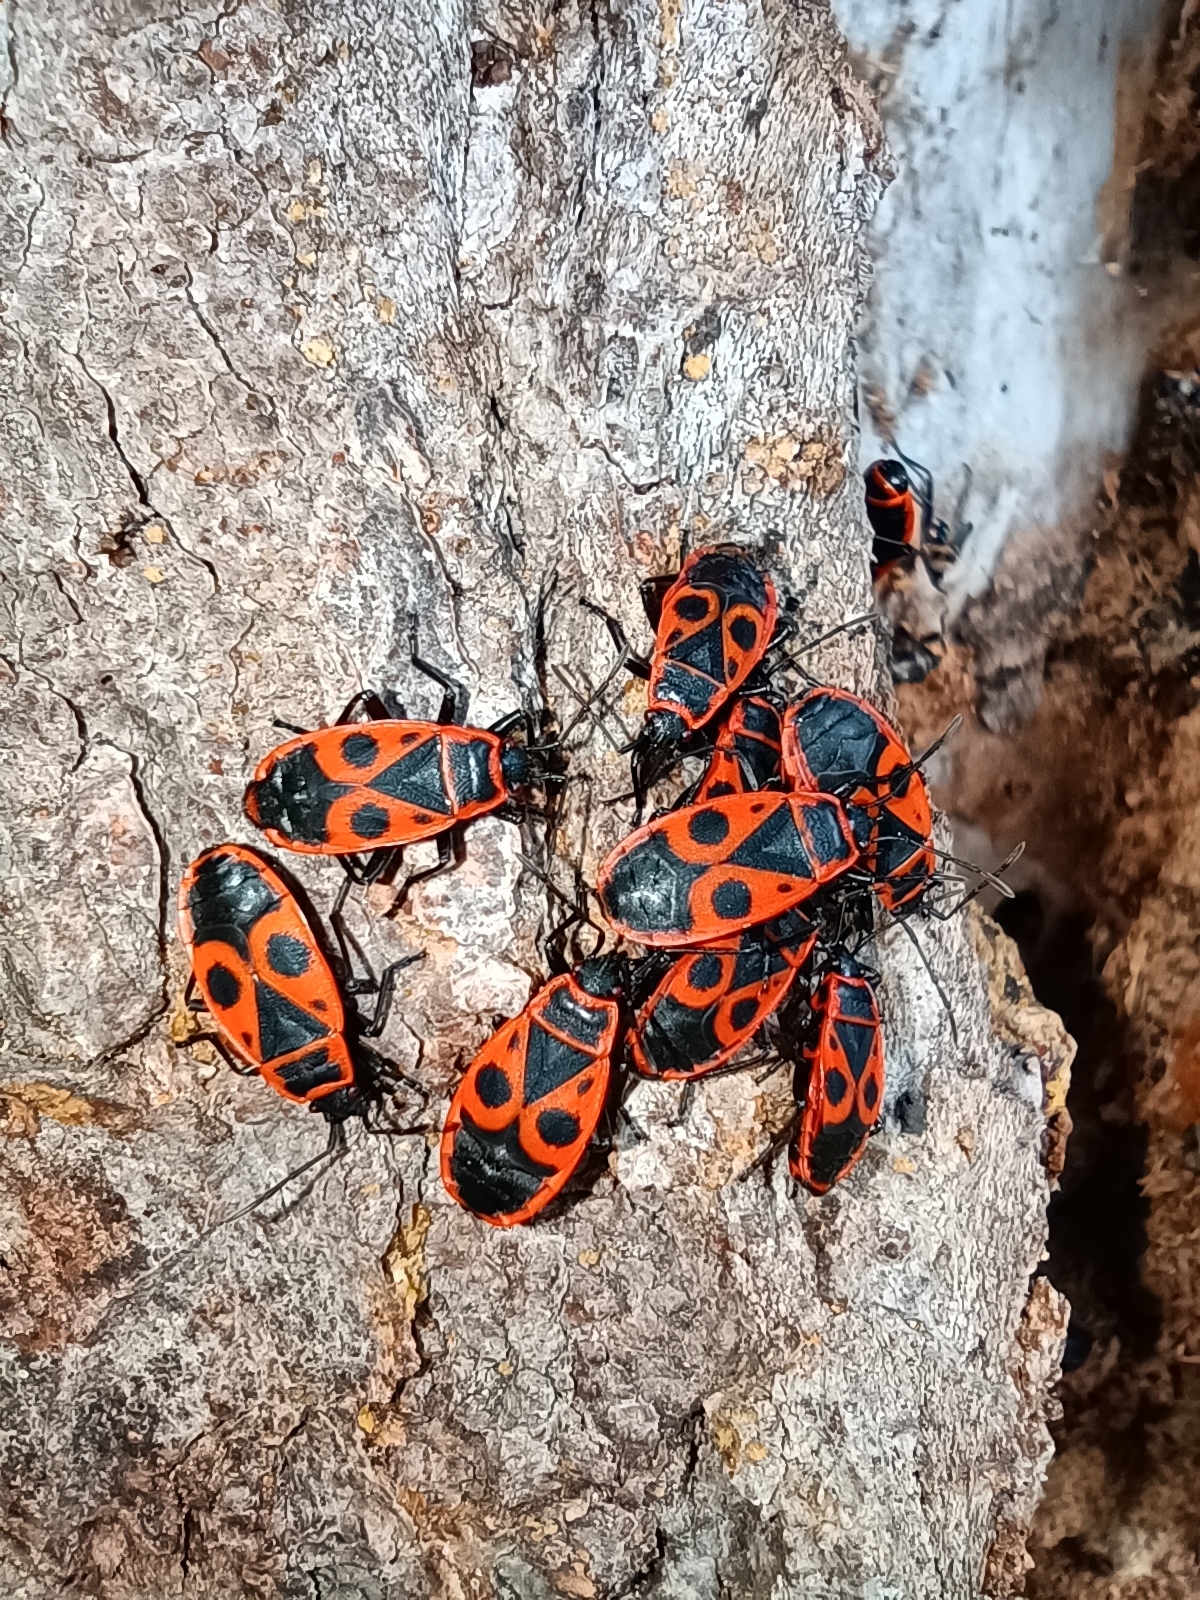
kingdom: Animalia
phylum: Arthropoda
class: Insecta
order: Hemiptera
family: Pyrrhocoridae
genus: Pyrrhocoris
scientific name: Pyrrhocoris apterus
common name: Firebug
